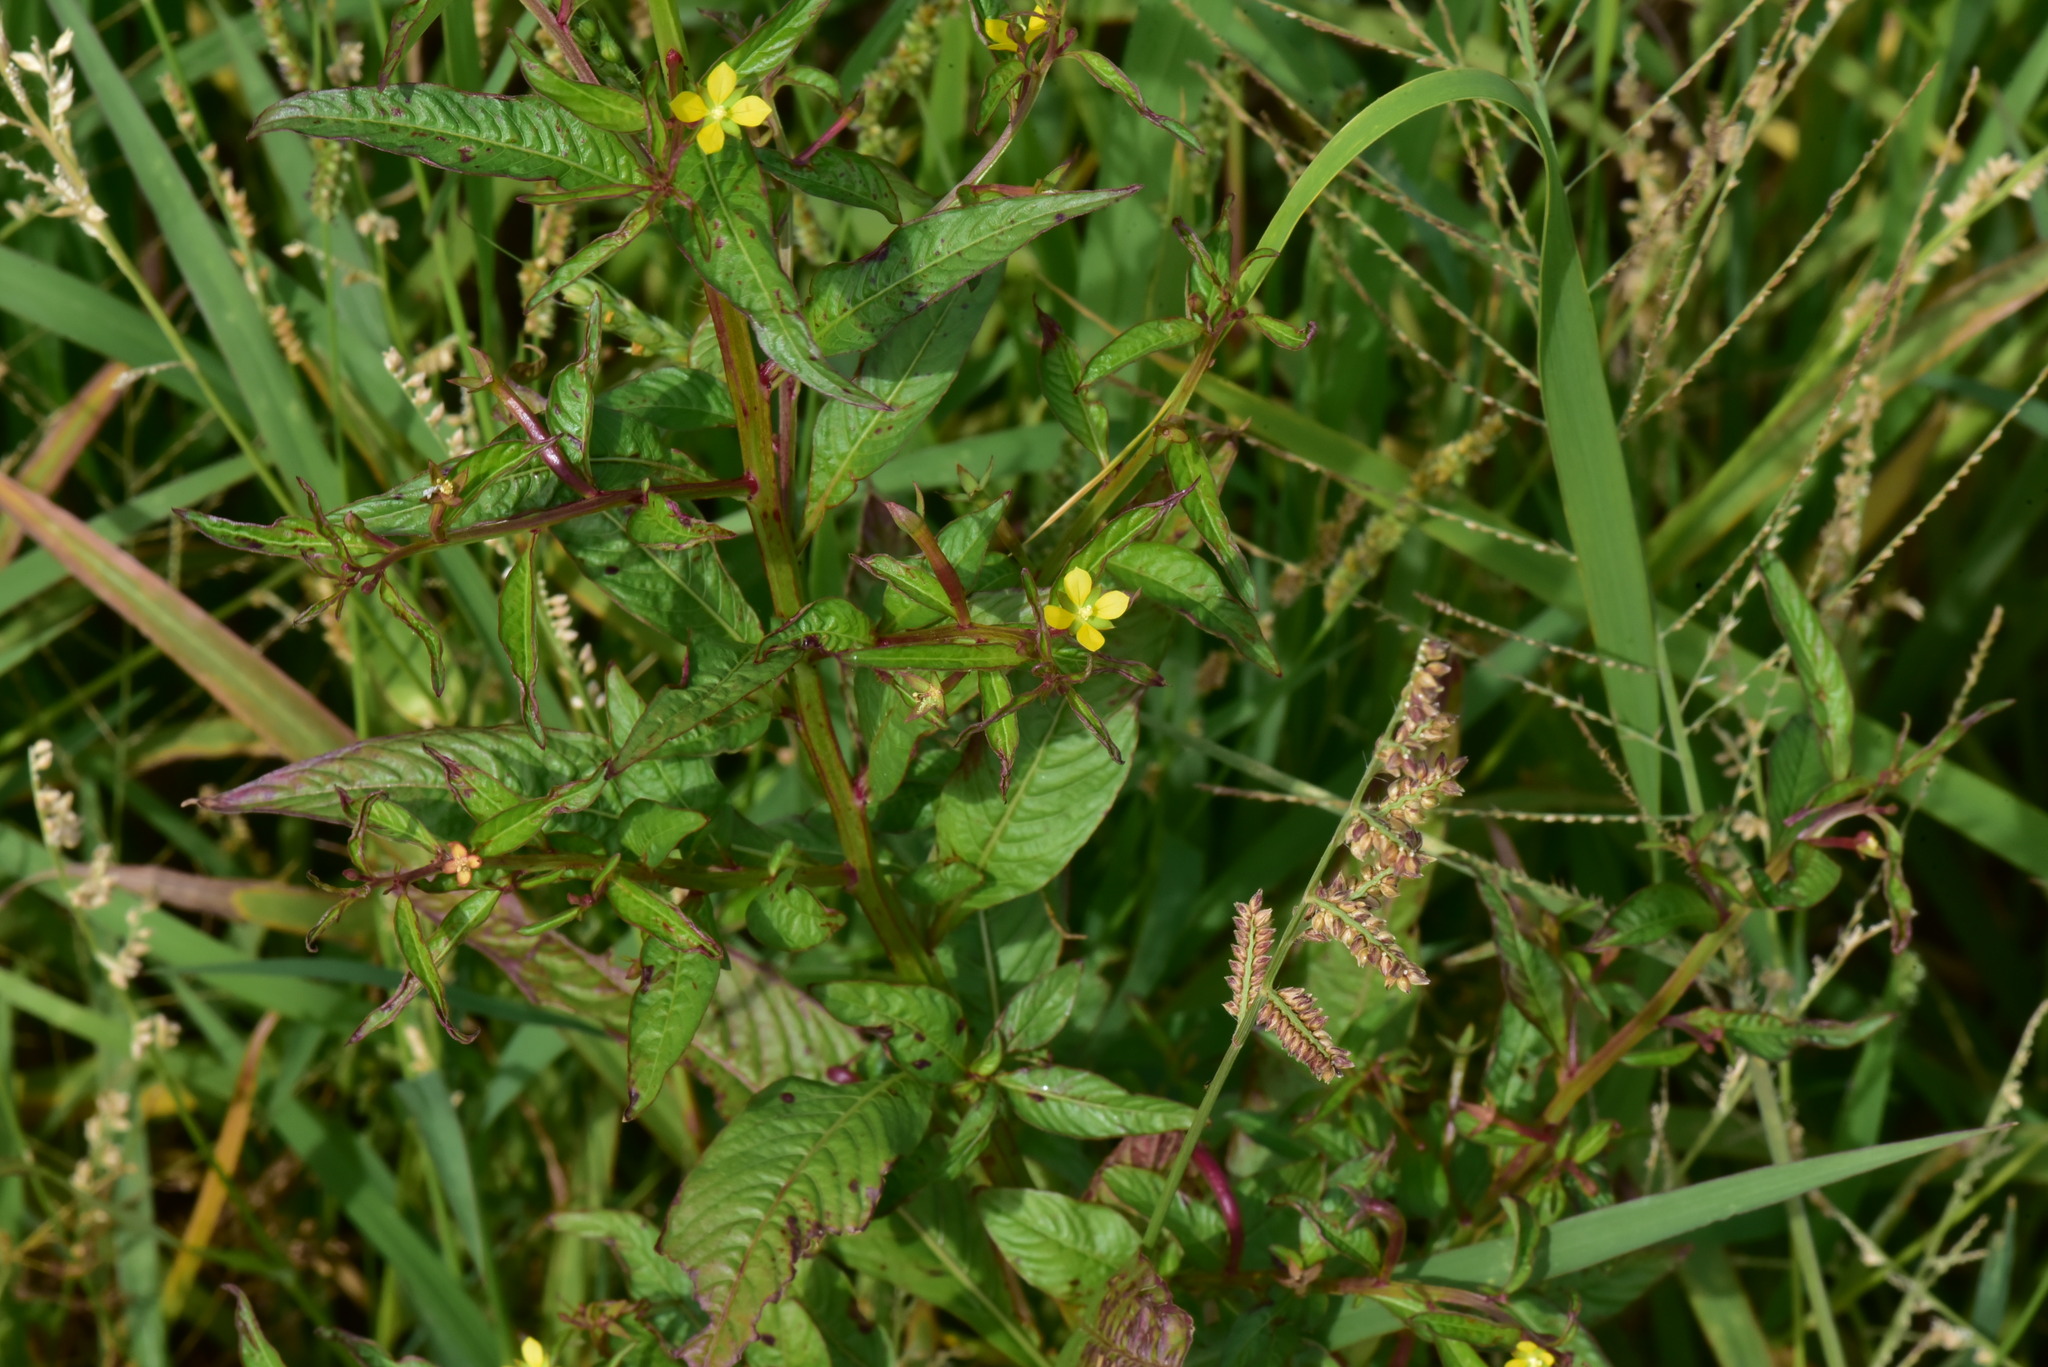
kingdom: Plantae
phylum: Tracheophyta
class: Magnoliopsida
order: Myrtales
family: Onagraceae
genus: Ludwigia
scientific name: Ludwigia hyssopifolia
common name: Linear leaf water primrose
